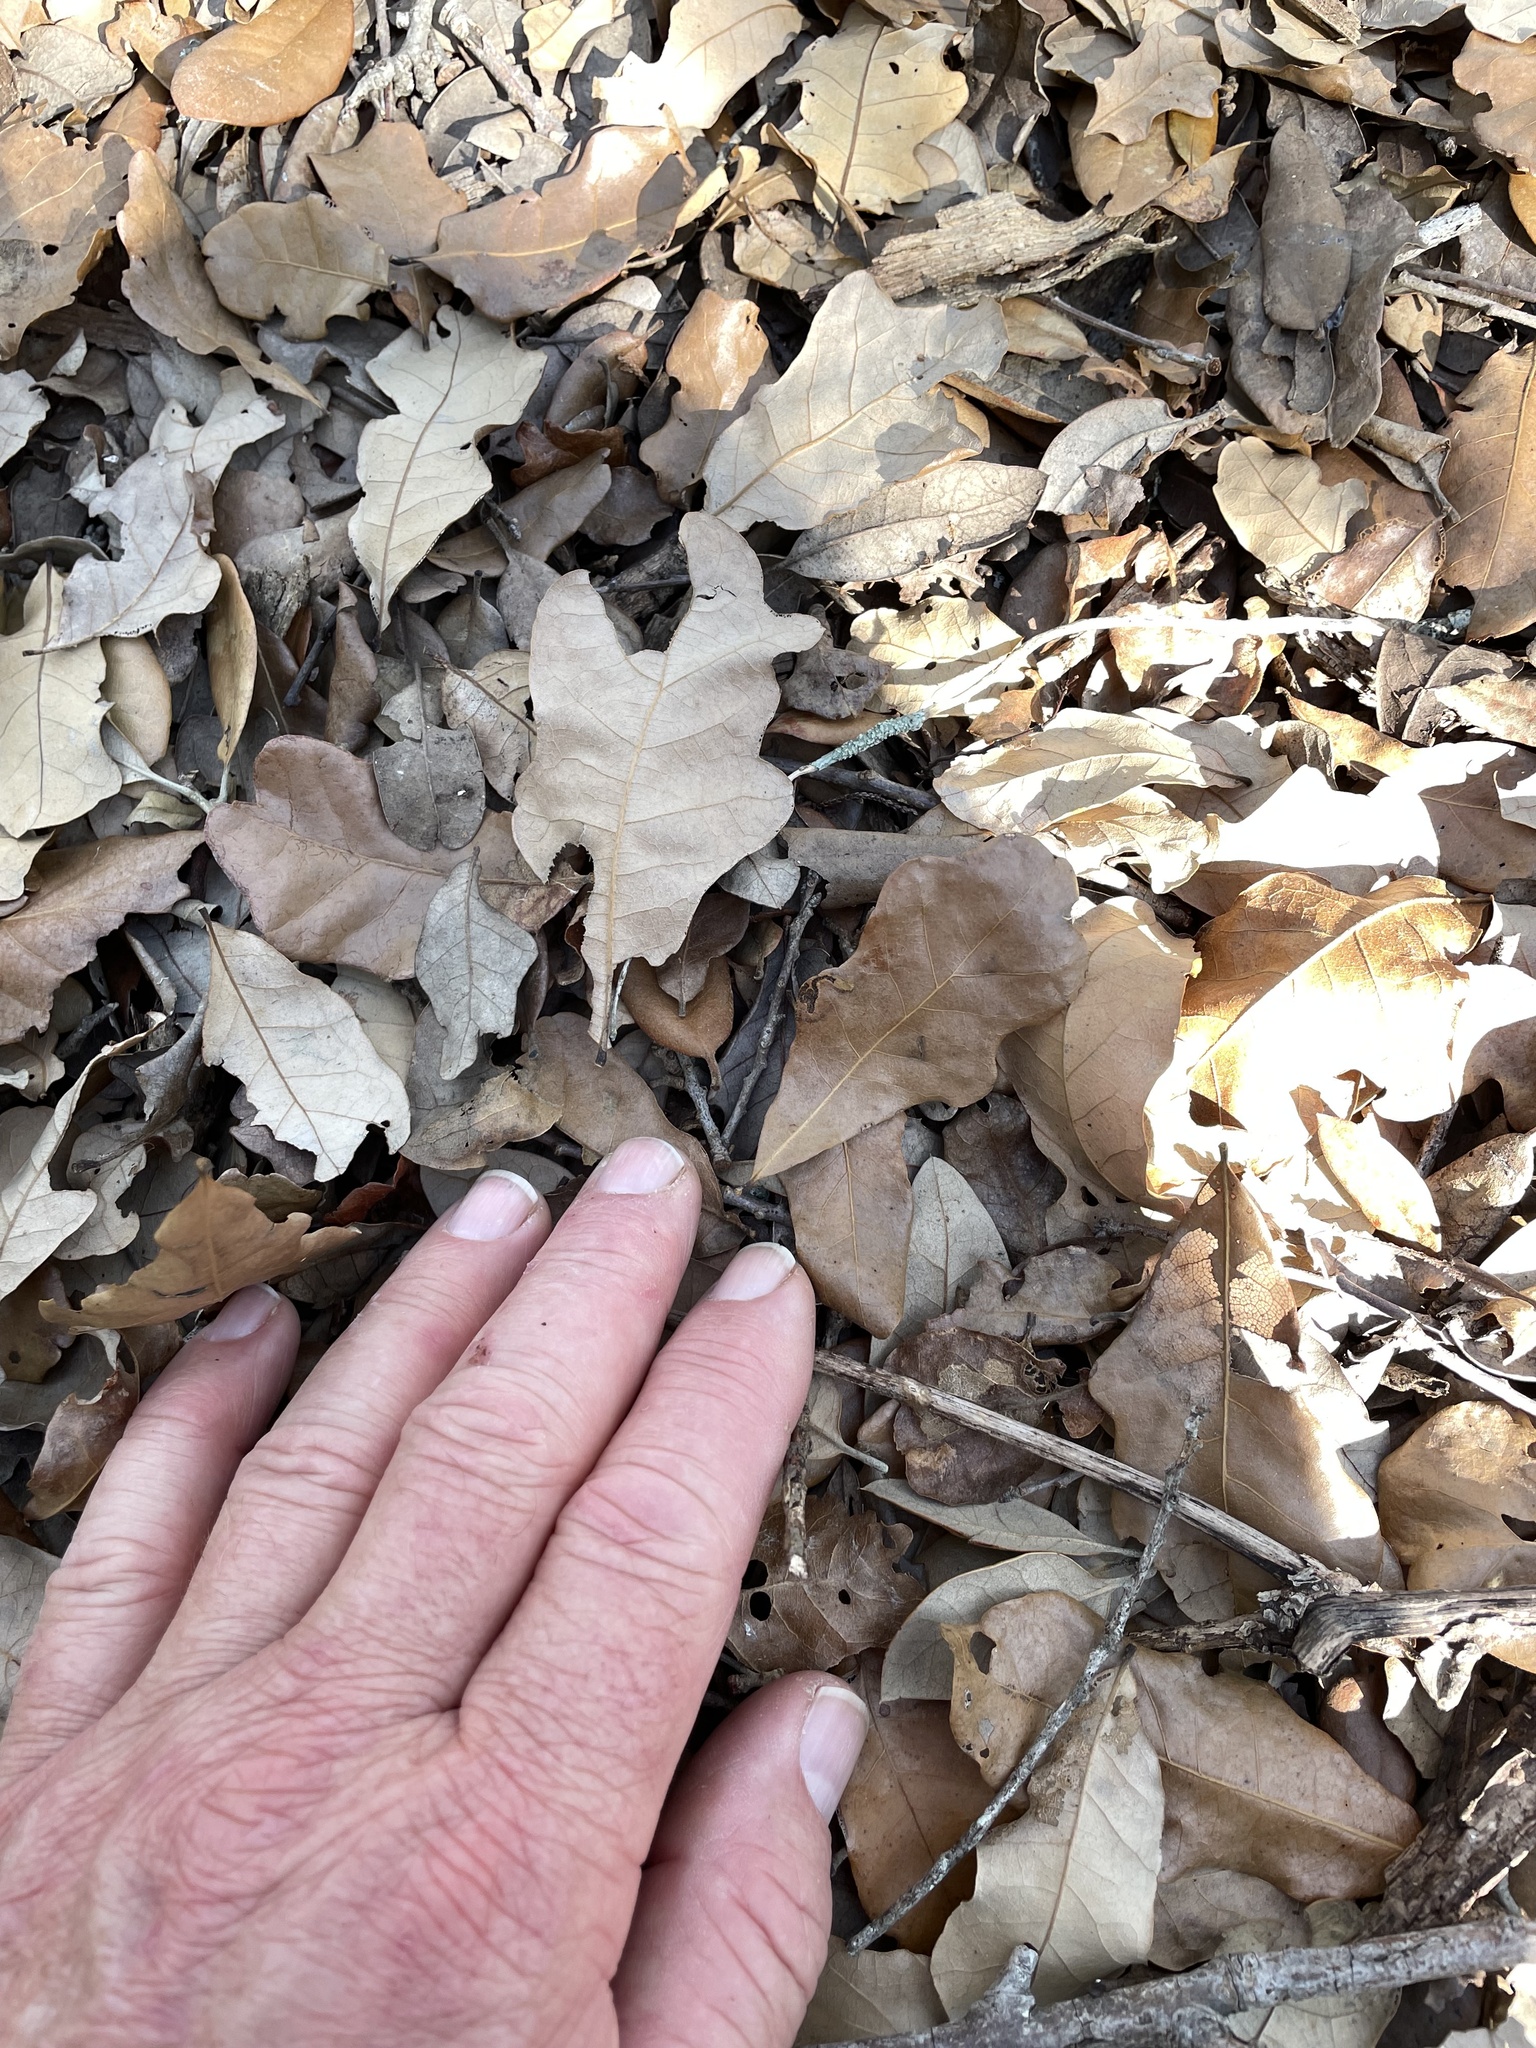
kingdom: Plantae
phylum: Tracheophyta
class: Magnoliopsida
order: Fagales
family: Fagaceae
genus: Quercus
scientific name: Quercus sinuata
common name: Durand oak
